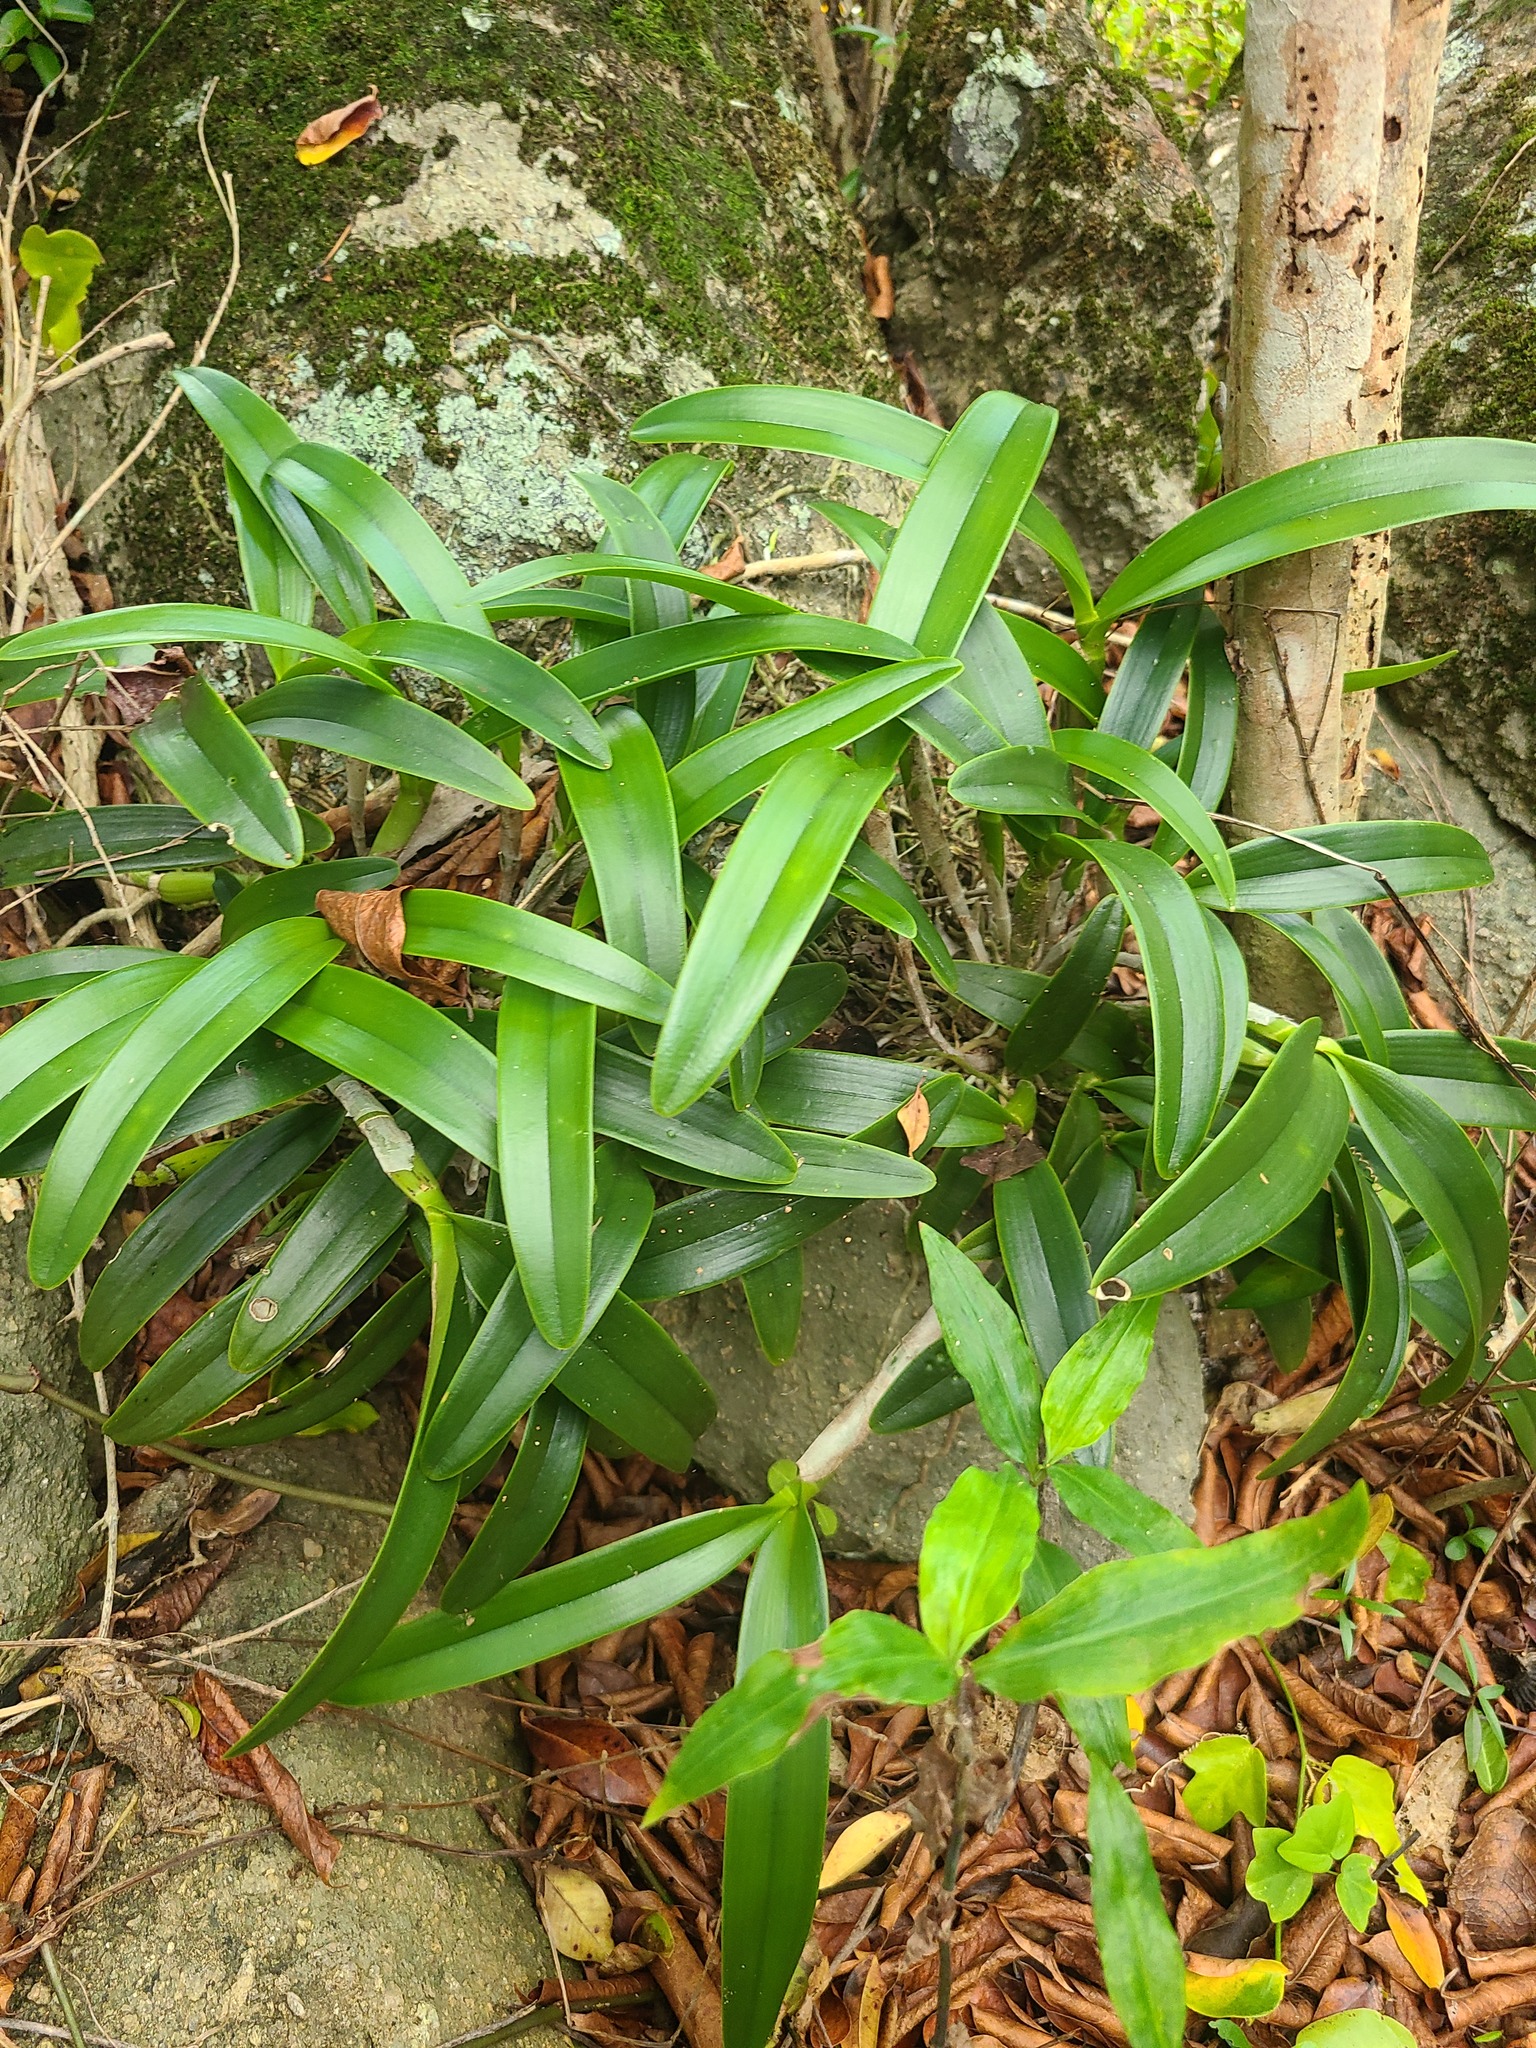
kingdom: Plantae
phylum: Tracheophyta
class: Liliopsida
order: Asparagales
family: Orchidaceae
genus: Epidendrum
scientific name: Epidendrum ciliare
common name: Eyelash orchid
